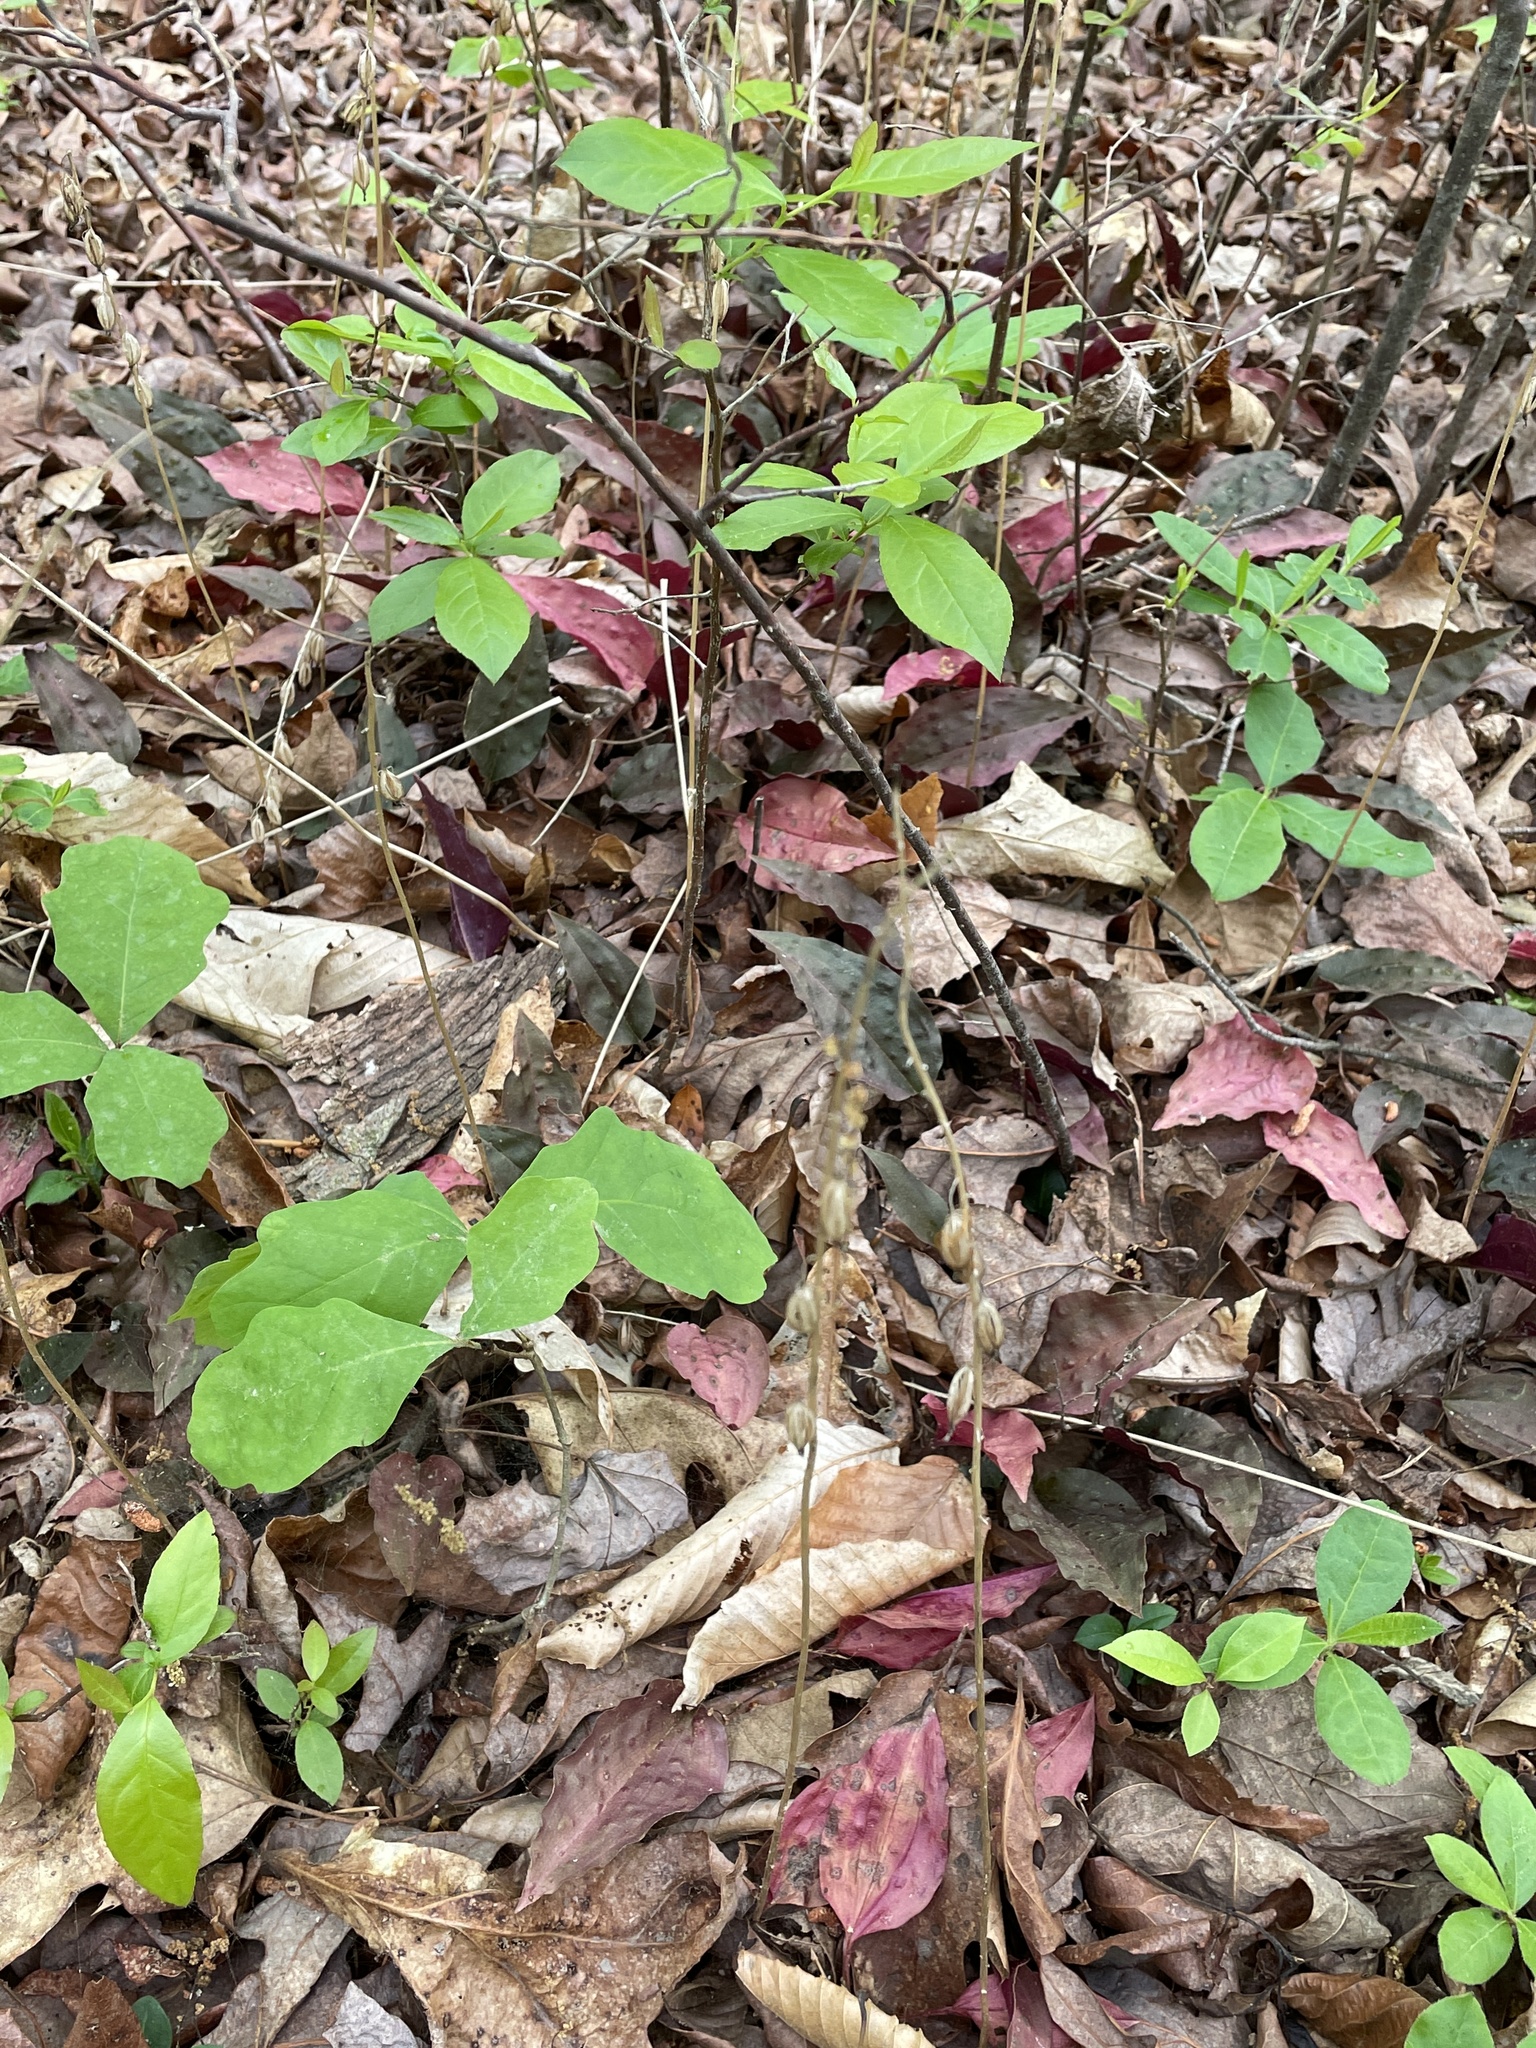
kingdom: Plantae
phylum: Tracheophyta
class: Liliopsida
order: Asparagales
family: Orchidaceae
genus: Tipularia
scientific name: Tipularia discolor
